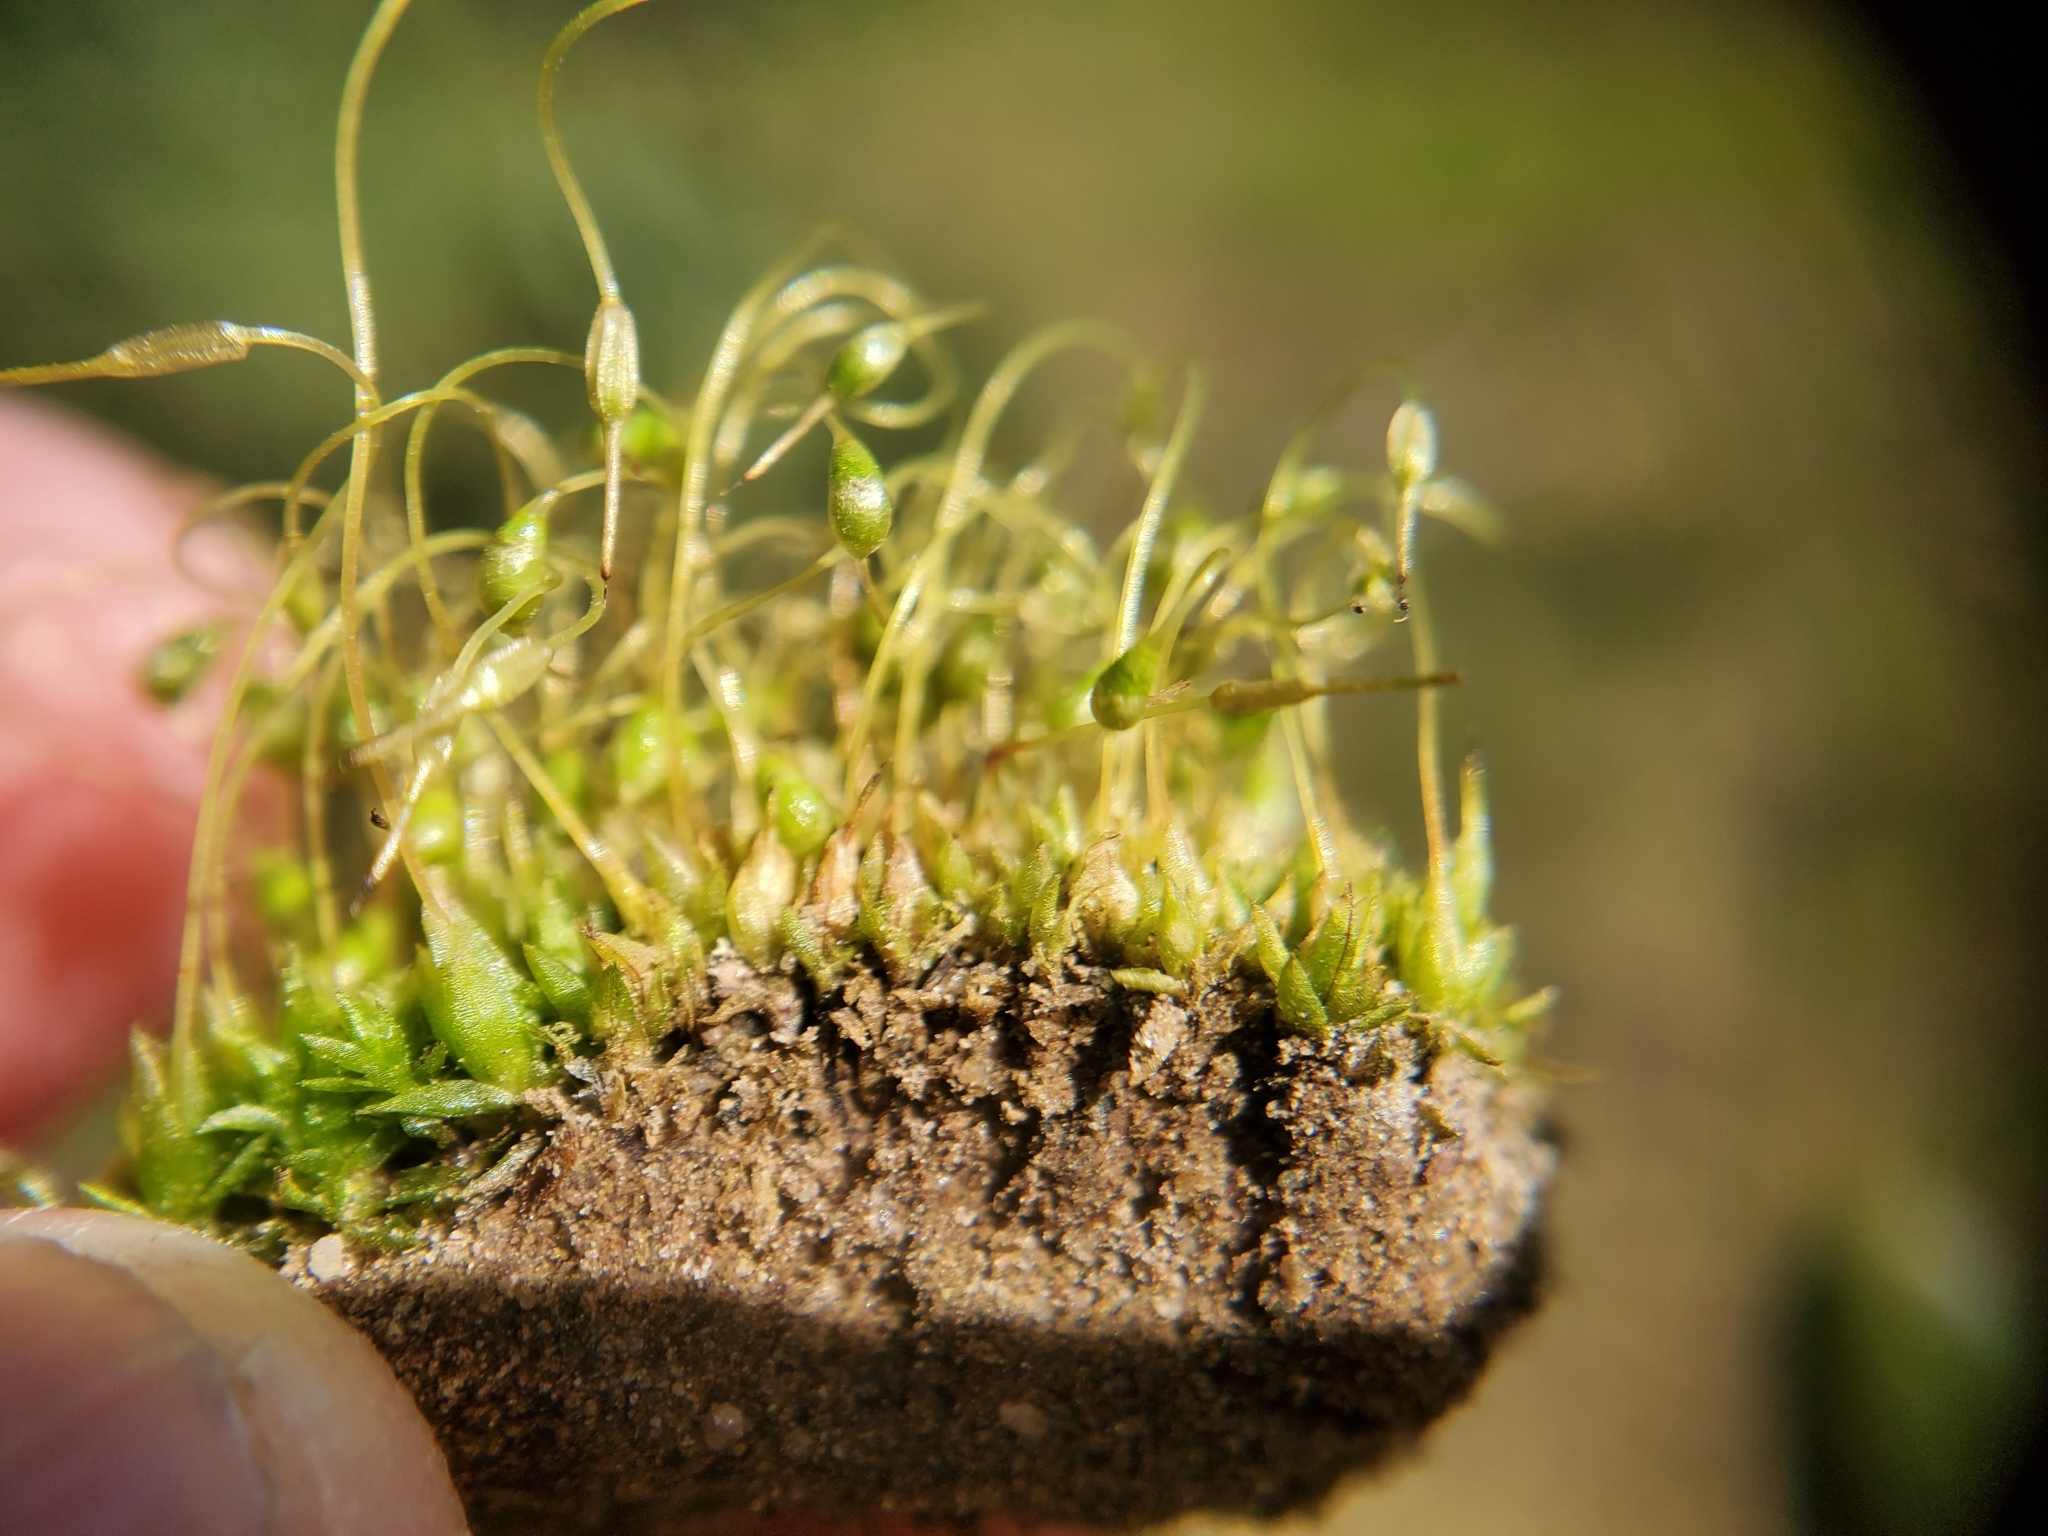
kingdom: Plantae
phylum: Bryophyta
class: Bryopsida
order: Funariales
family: Funariaceae
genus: Funaria
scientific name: Funaria hygrometrica
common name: Common cord moss
